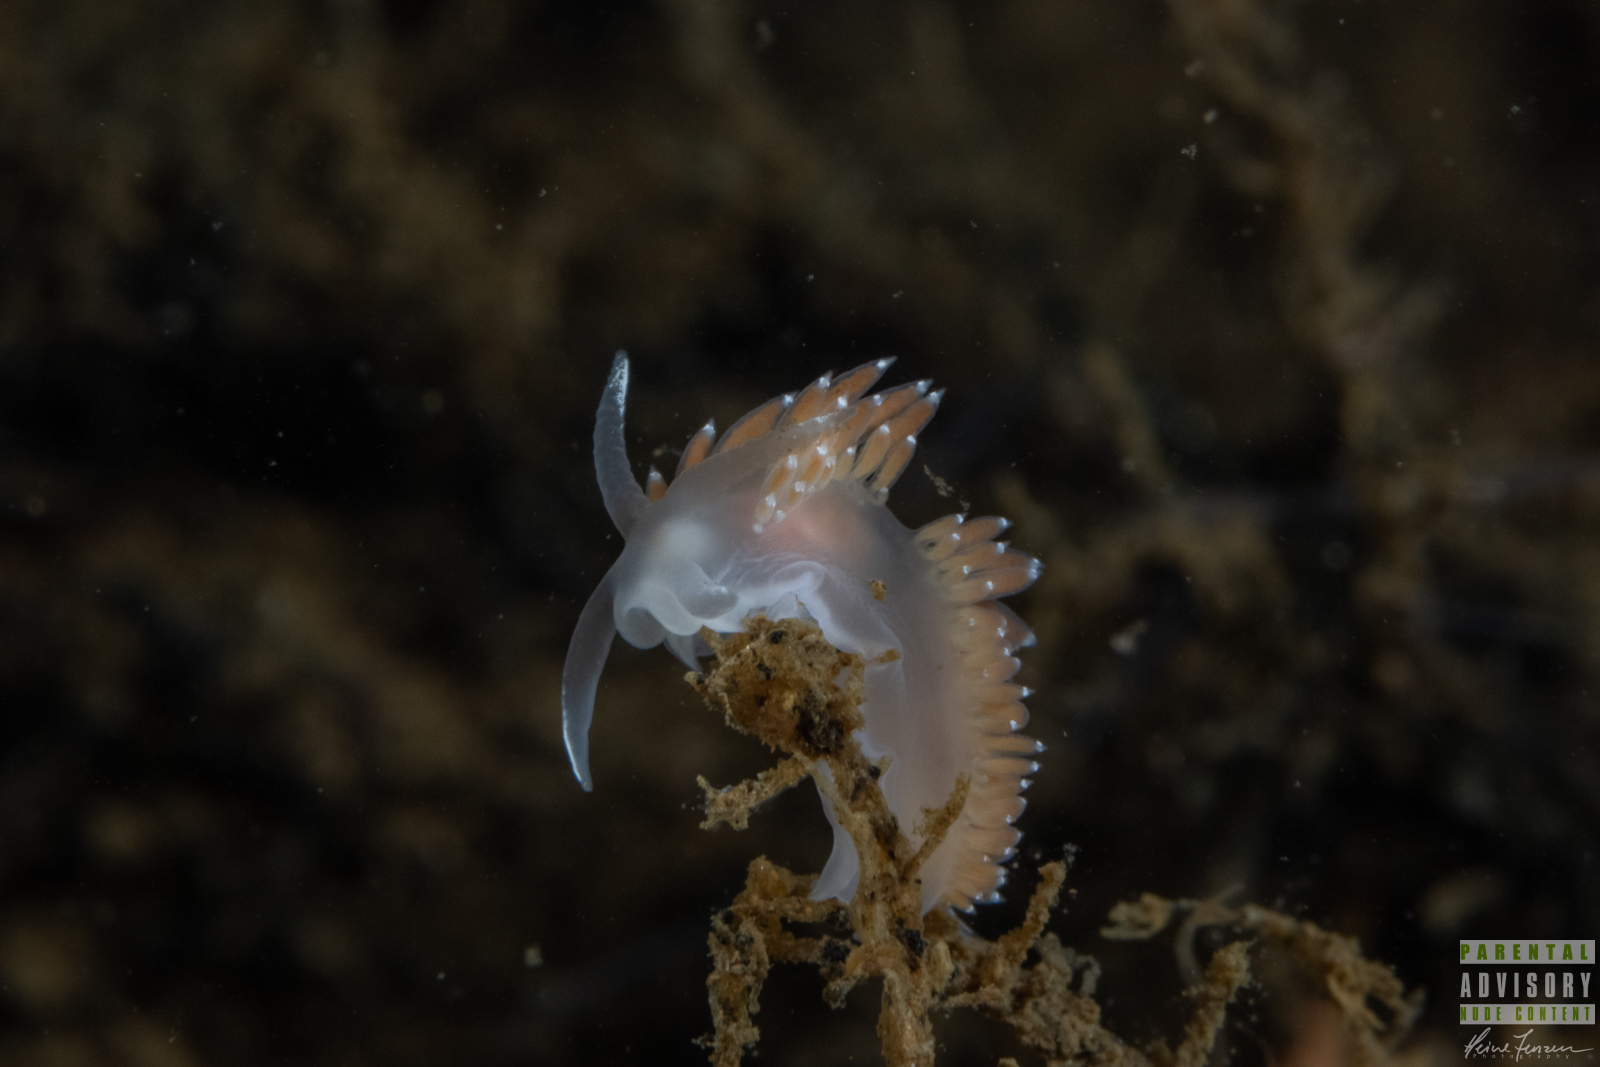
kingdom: Animalia
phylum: Mollusca
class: Gastropoda
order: Nudibranchia
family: Coryphellidae
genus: Coryphella
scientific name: Coryphella verrucosa
